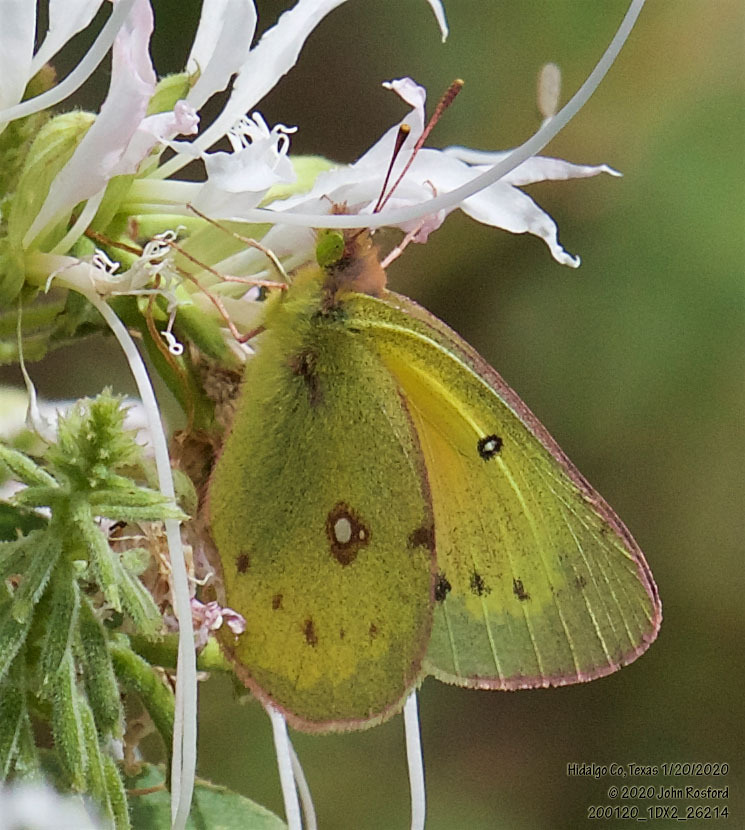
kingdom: Animalia
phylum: Arthropoda
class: Insecta
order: Lepidoptera
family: Pieridae
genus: Colias
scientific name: Colias eurytheme
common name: Alfalfa butterfly
